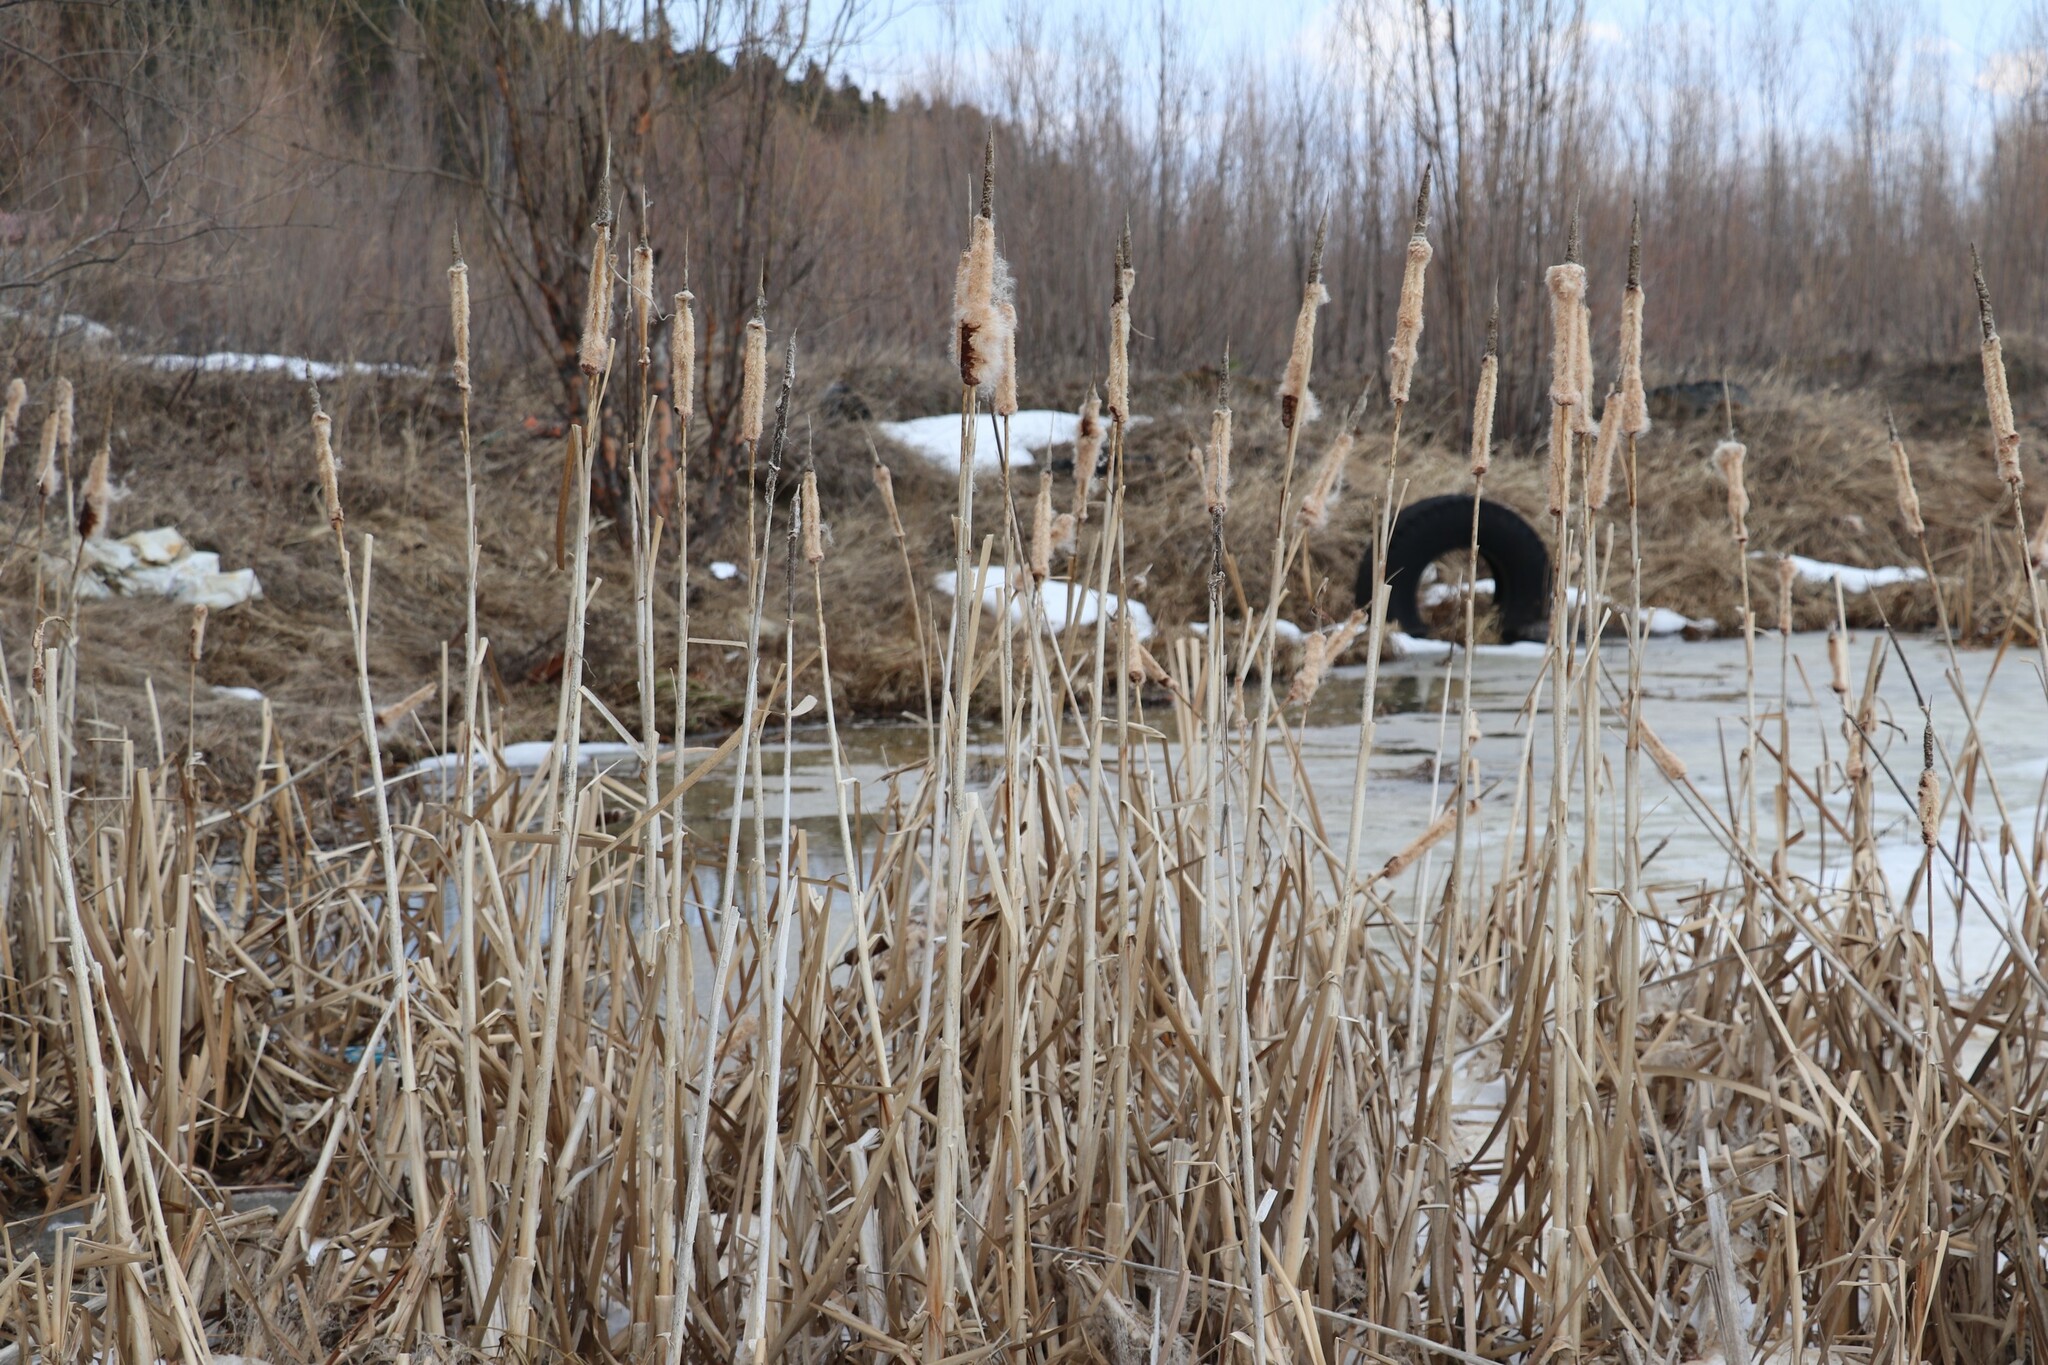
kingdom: Plantae
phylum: Tracheophyta
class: Liliopsida
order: Poales
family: Typhaceae
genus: Typha
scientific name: Typha latifolia
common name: Broadleaf cattail
